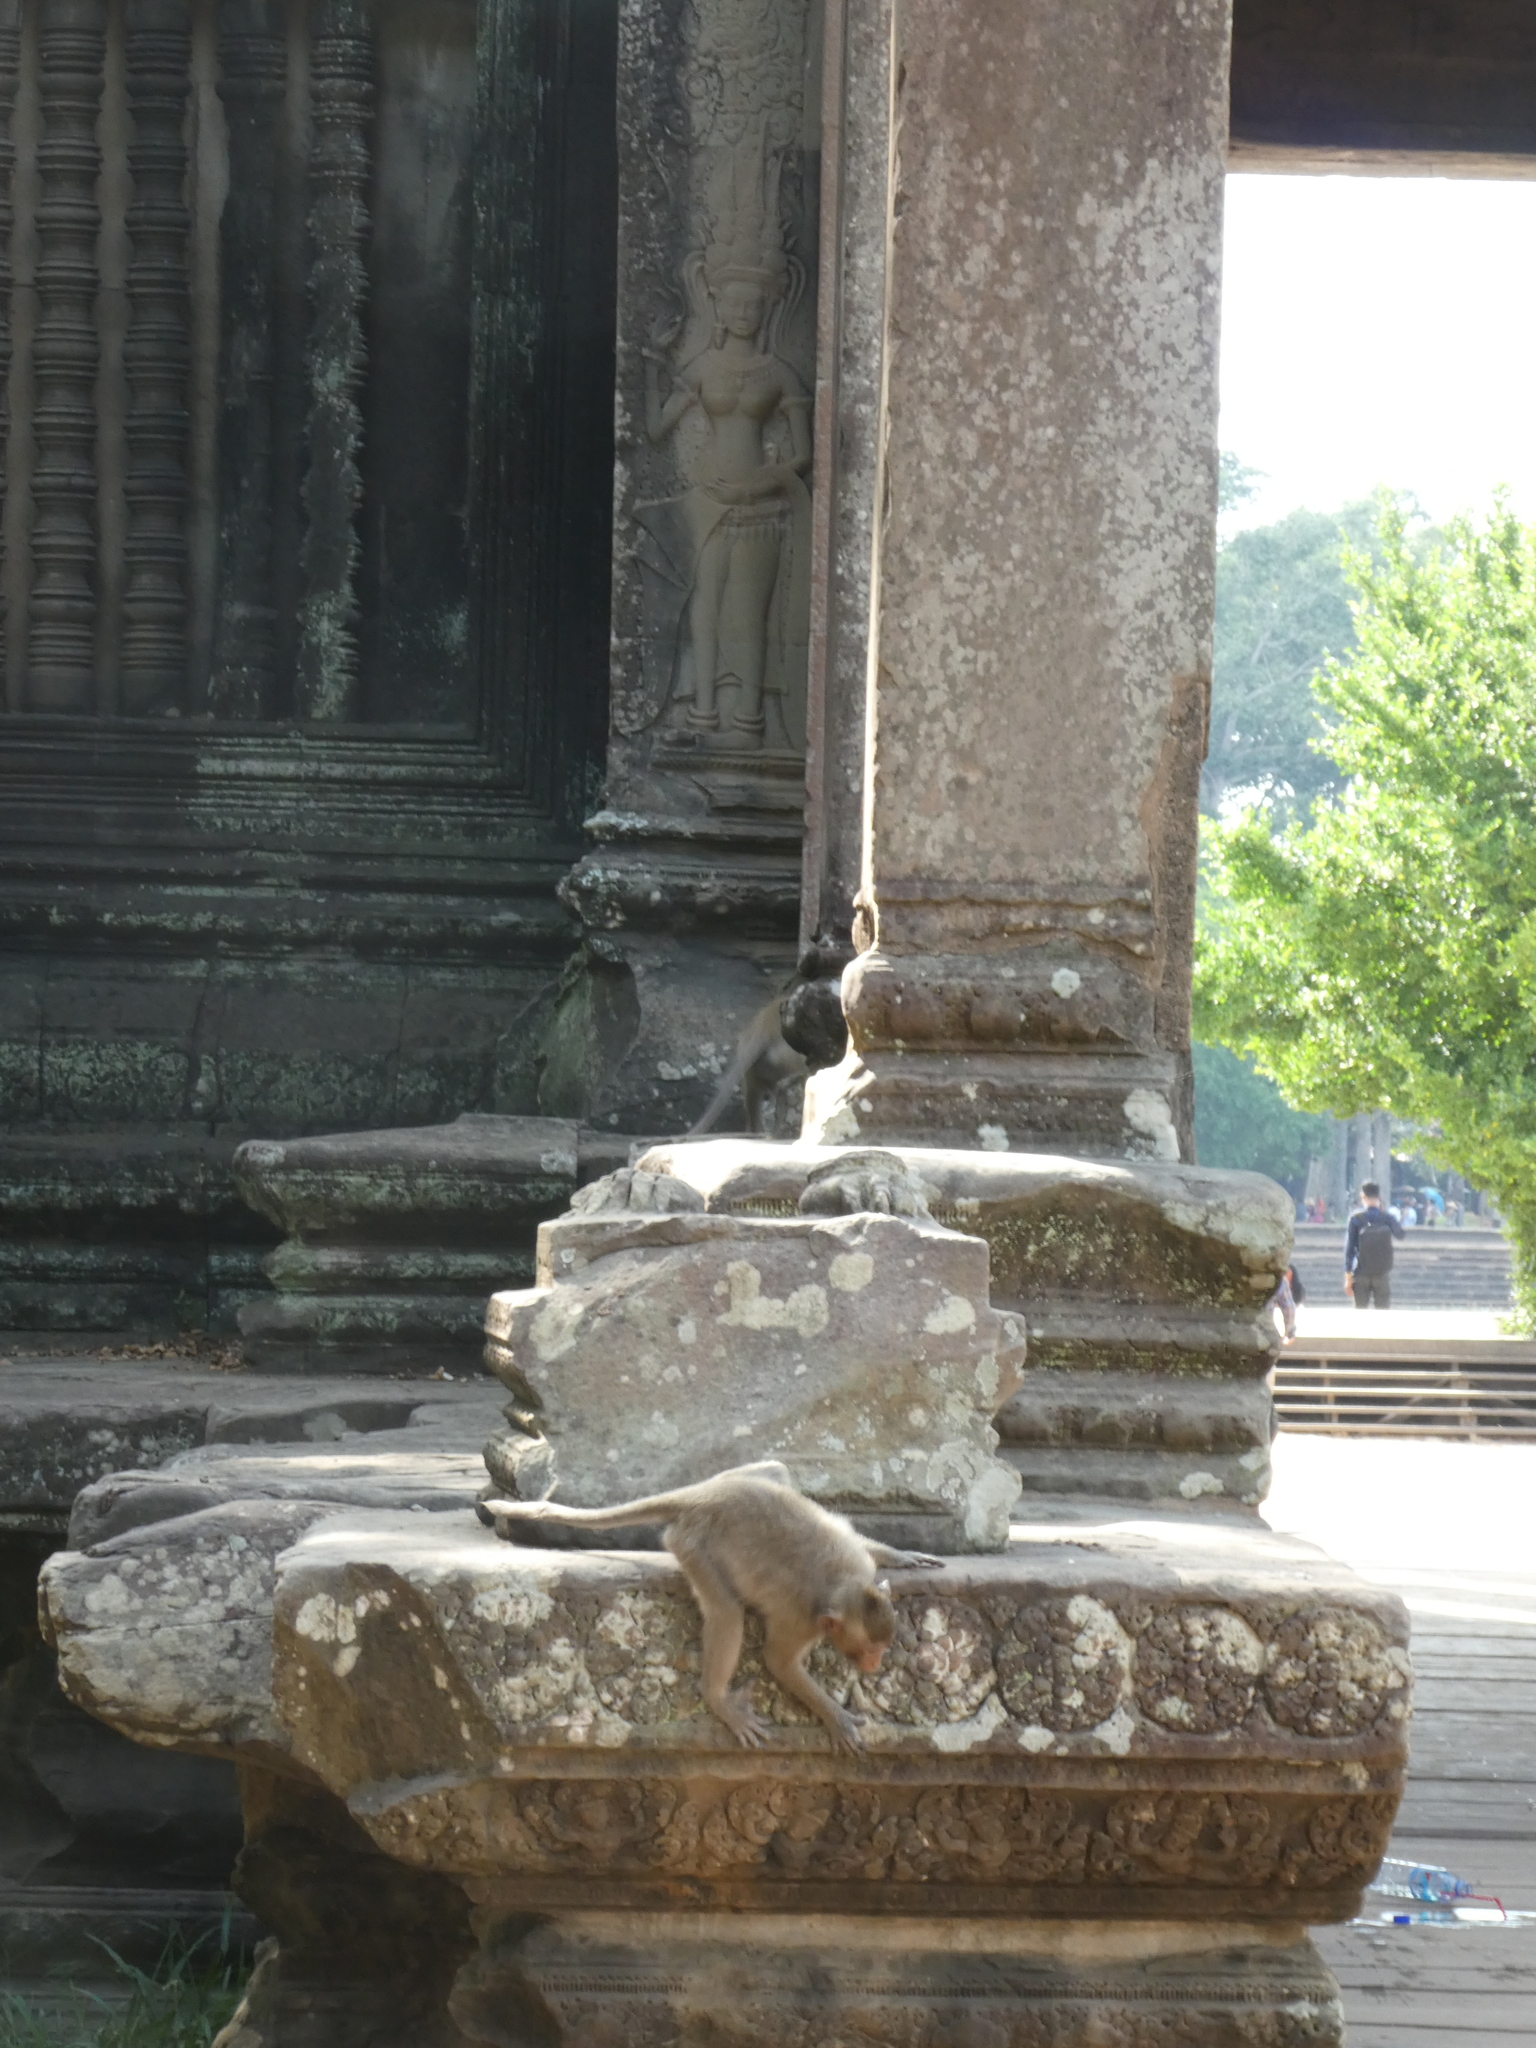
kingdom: Animalia
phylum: Chordata
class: Mammalia
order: Primates
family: Cercopithecidae
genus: Macaca
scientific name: Macaca fascicularis
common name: Crab-eating macaque
